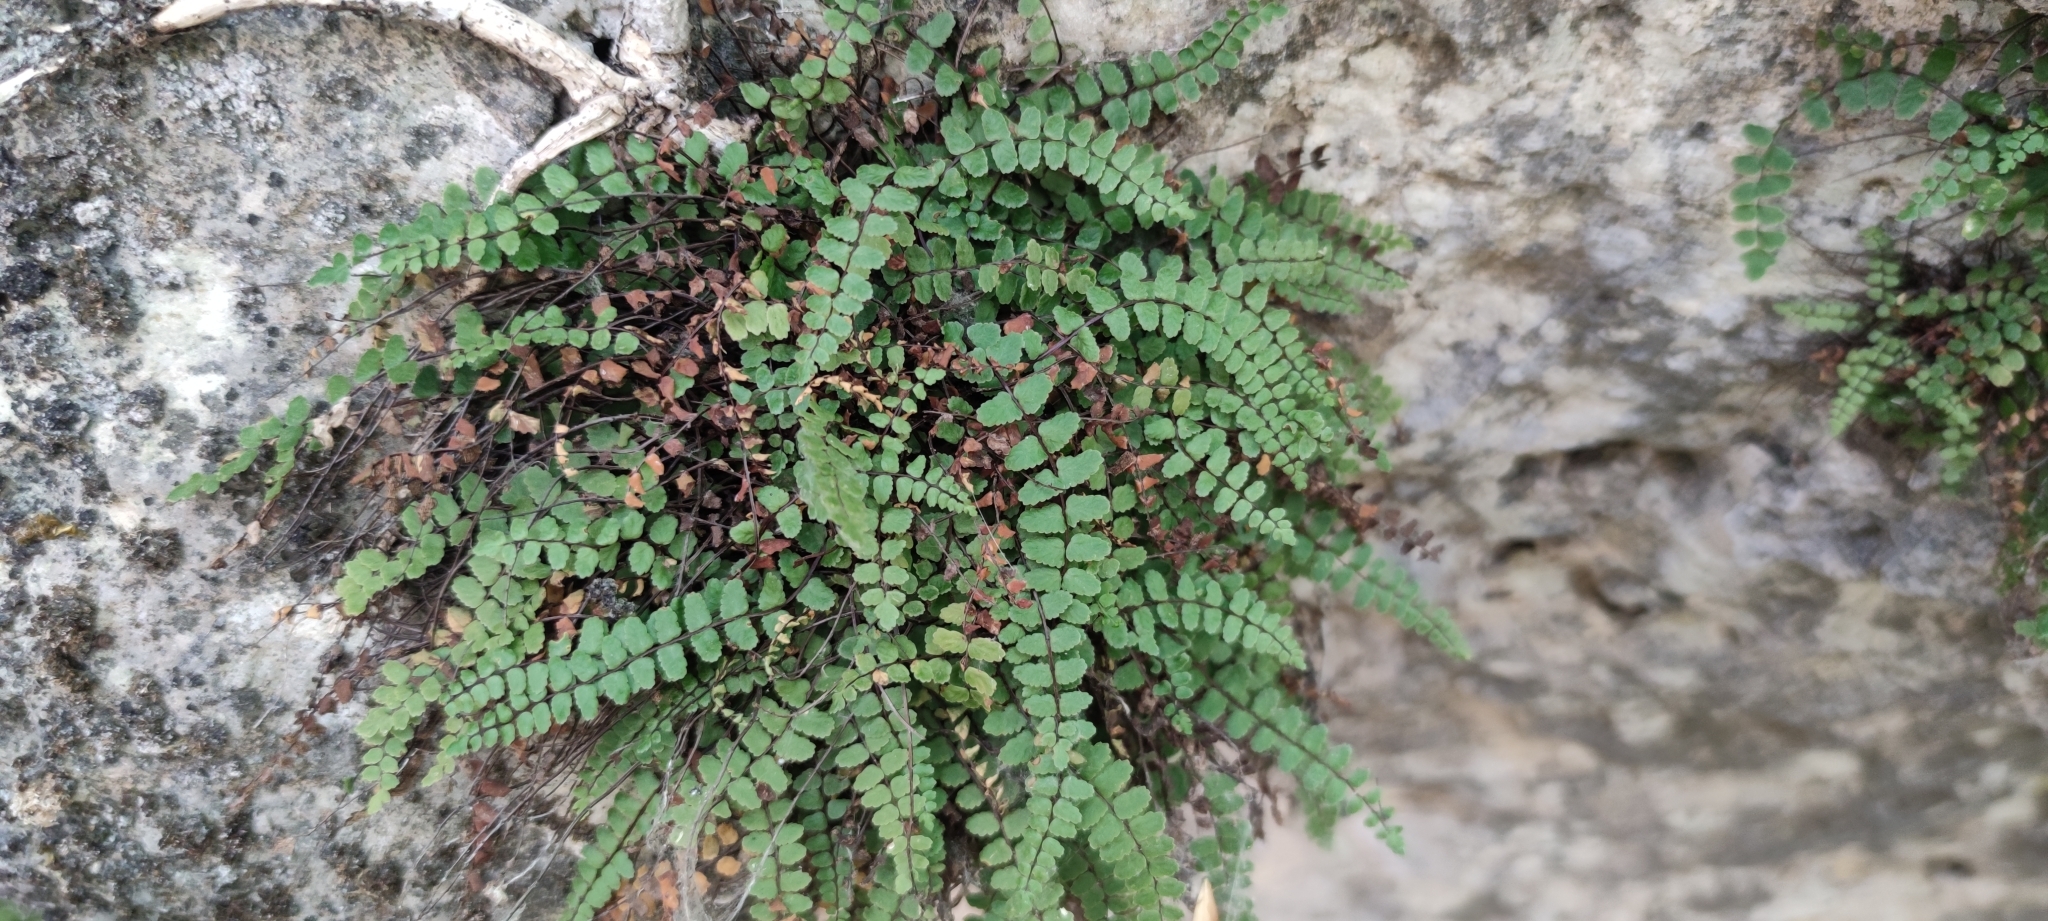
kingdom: Plantae
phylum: Tracheophyta
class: Polypodiopsida
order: Polypodiales
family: Aspleniaceae
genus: Asplenium
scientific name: Asplenium trichomanes
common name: Maidenhair spleenwort
